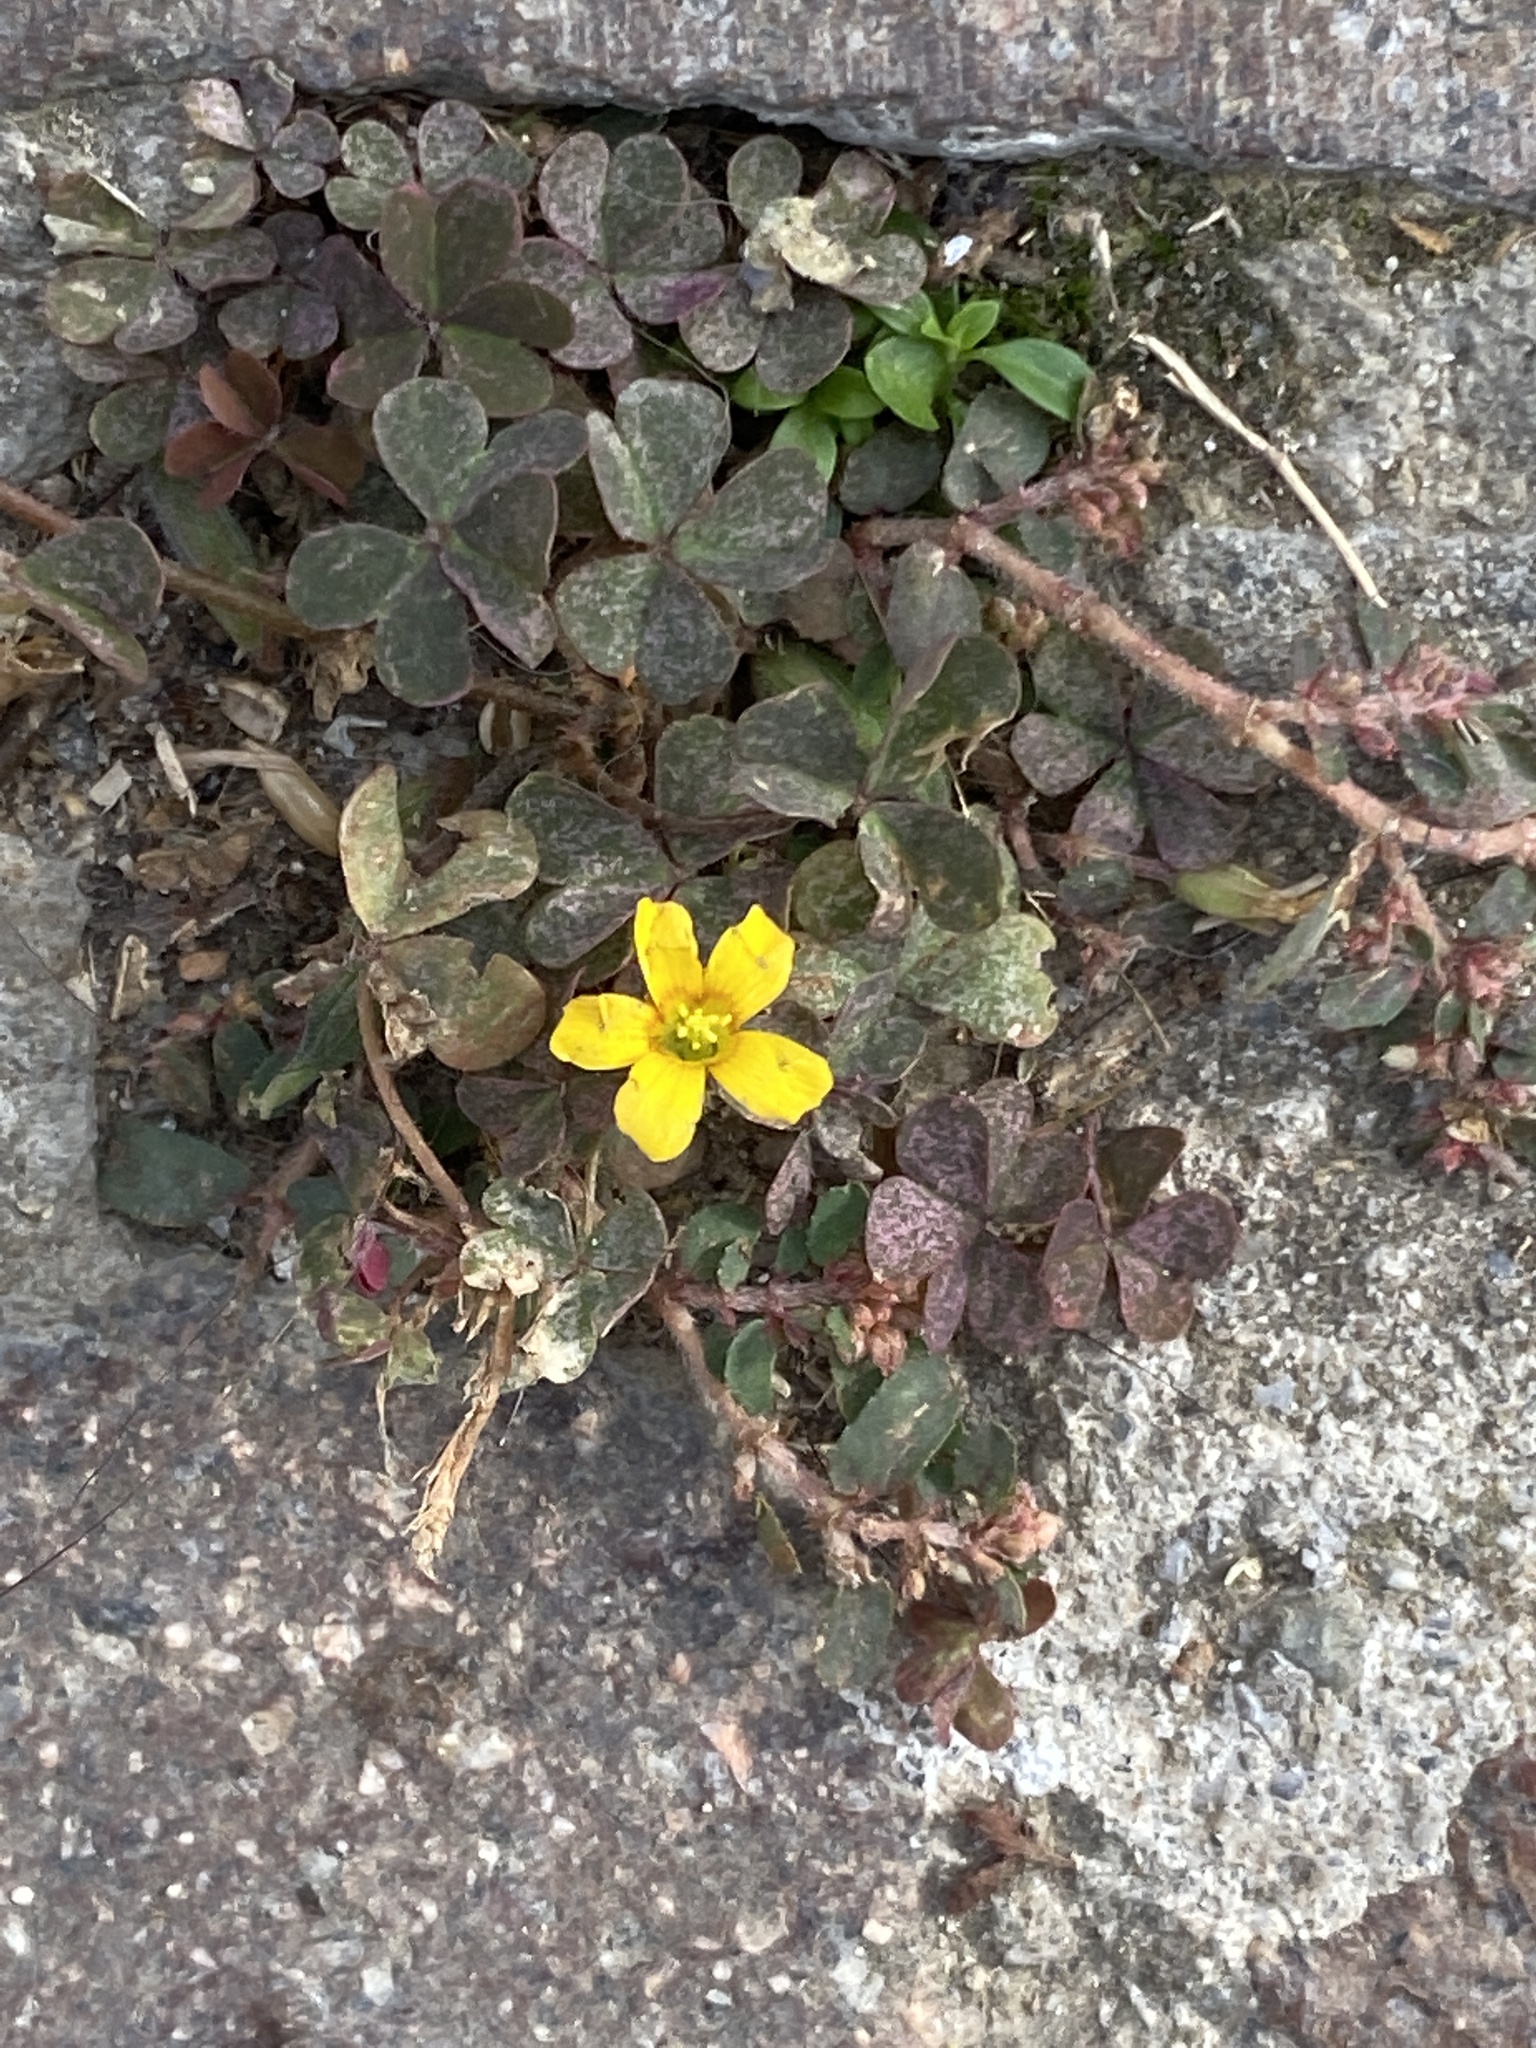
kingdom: Plantae
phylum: Tracheophyta
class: Magnoliopsida
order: Oxalidales
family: Oxalidaceae
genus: Oxalis
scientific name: Oxalis corniculata
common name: Procumbent yellow-sorrel
